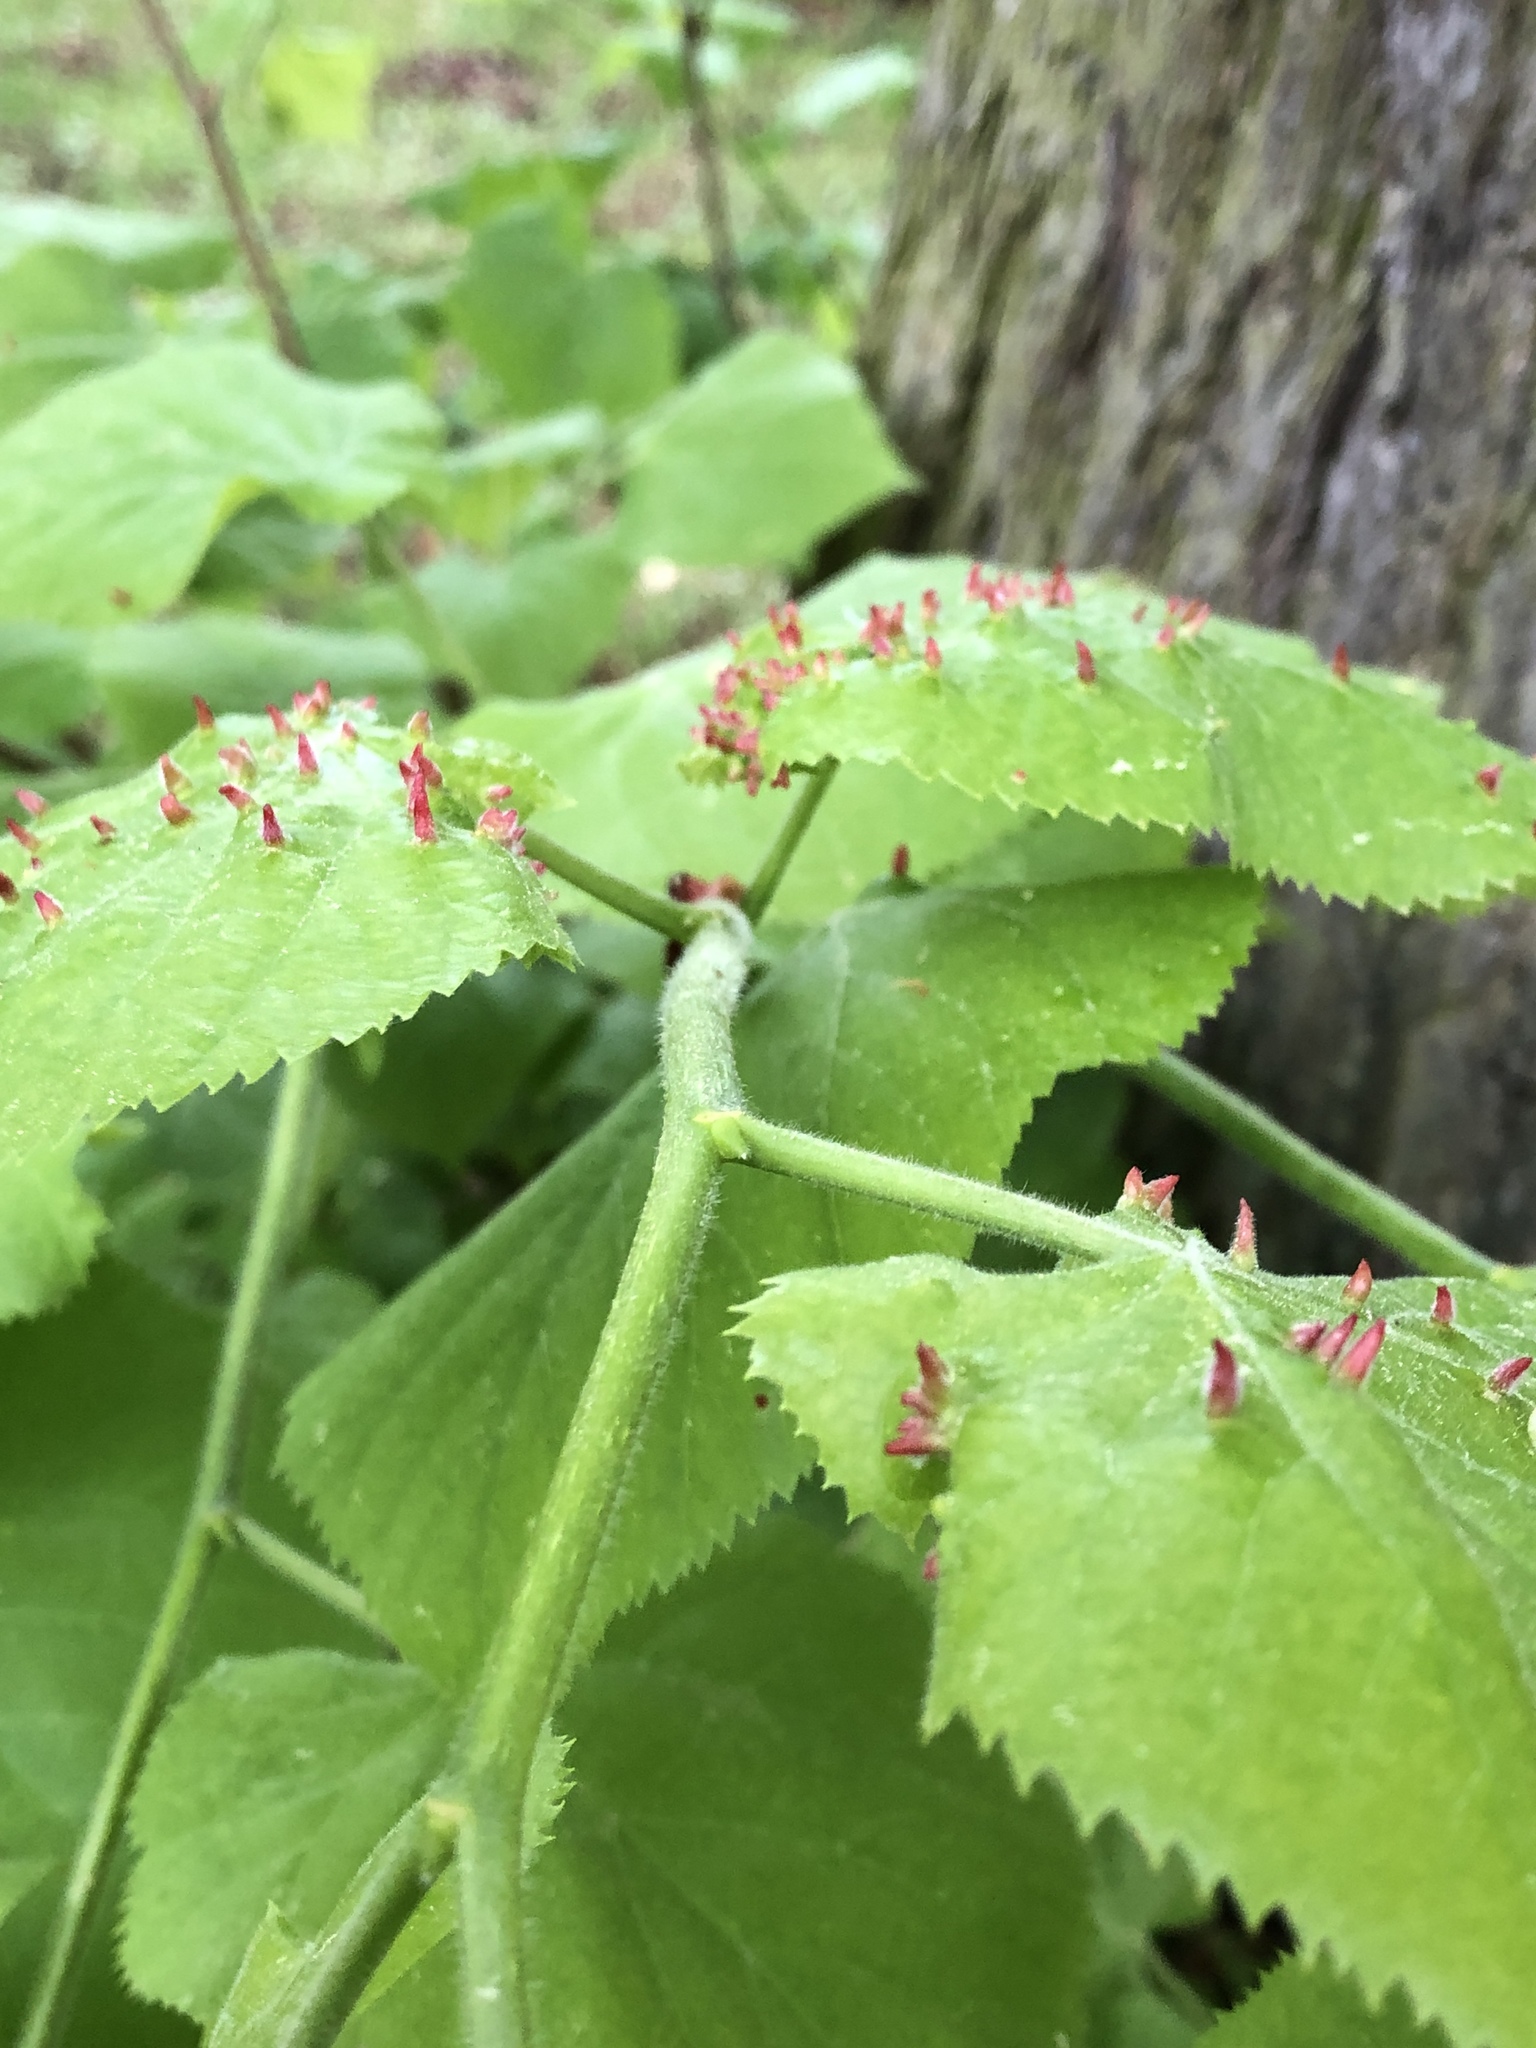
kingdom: Animalia
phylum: Arthropoda
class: Arachnida
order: Trombidiformes
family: Eriophyidae
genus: Eriophyes
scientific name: Eriophyes tiliae
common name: Red nail gall mite
